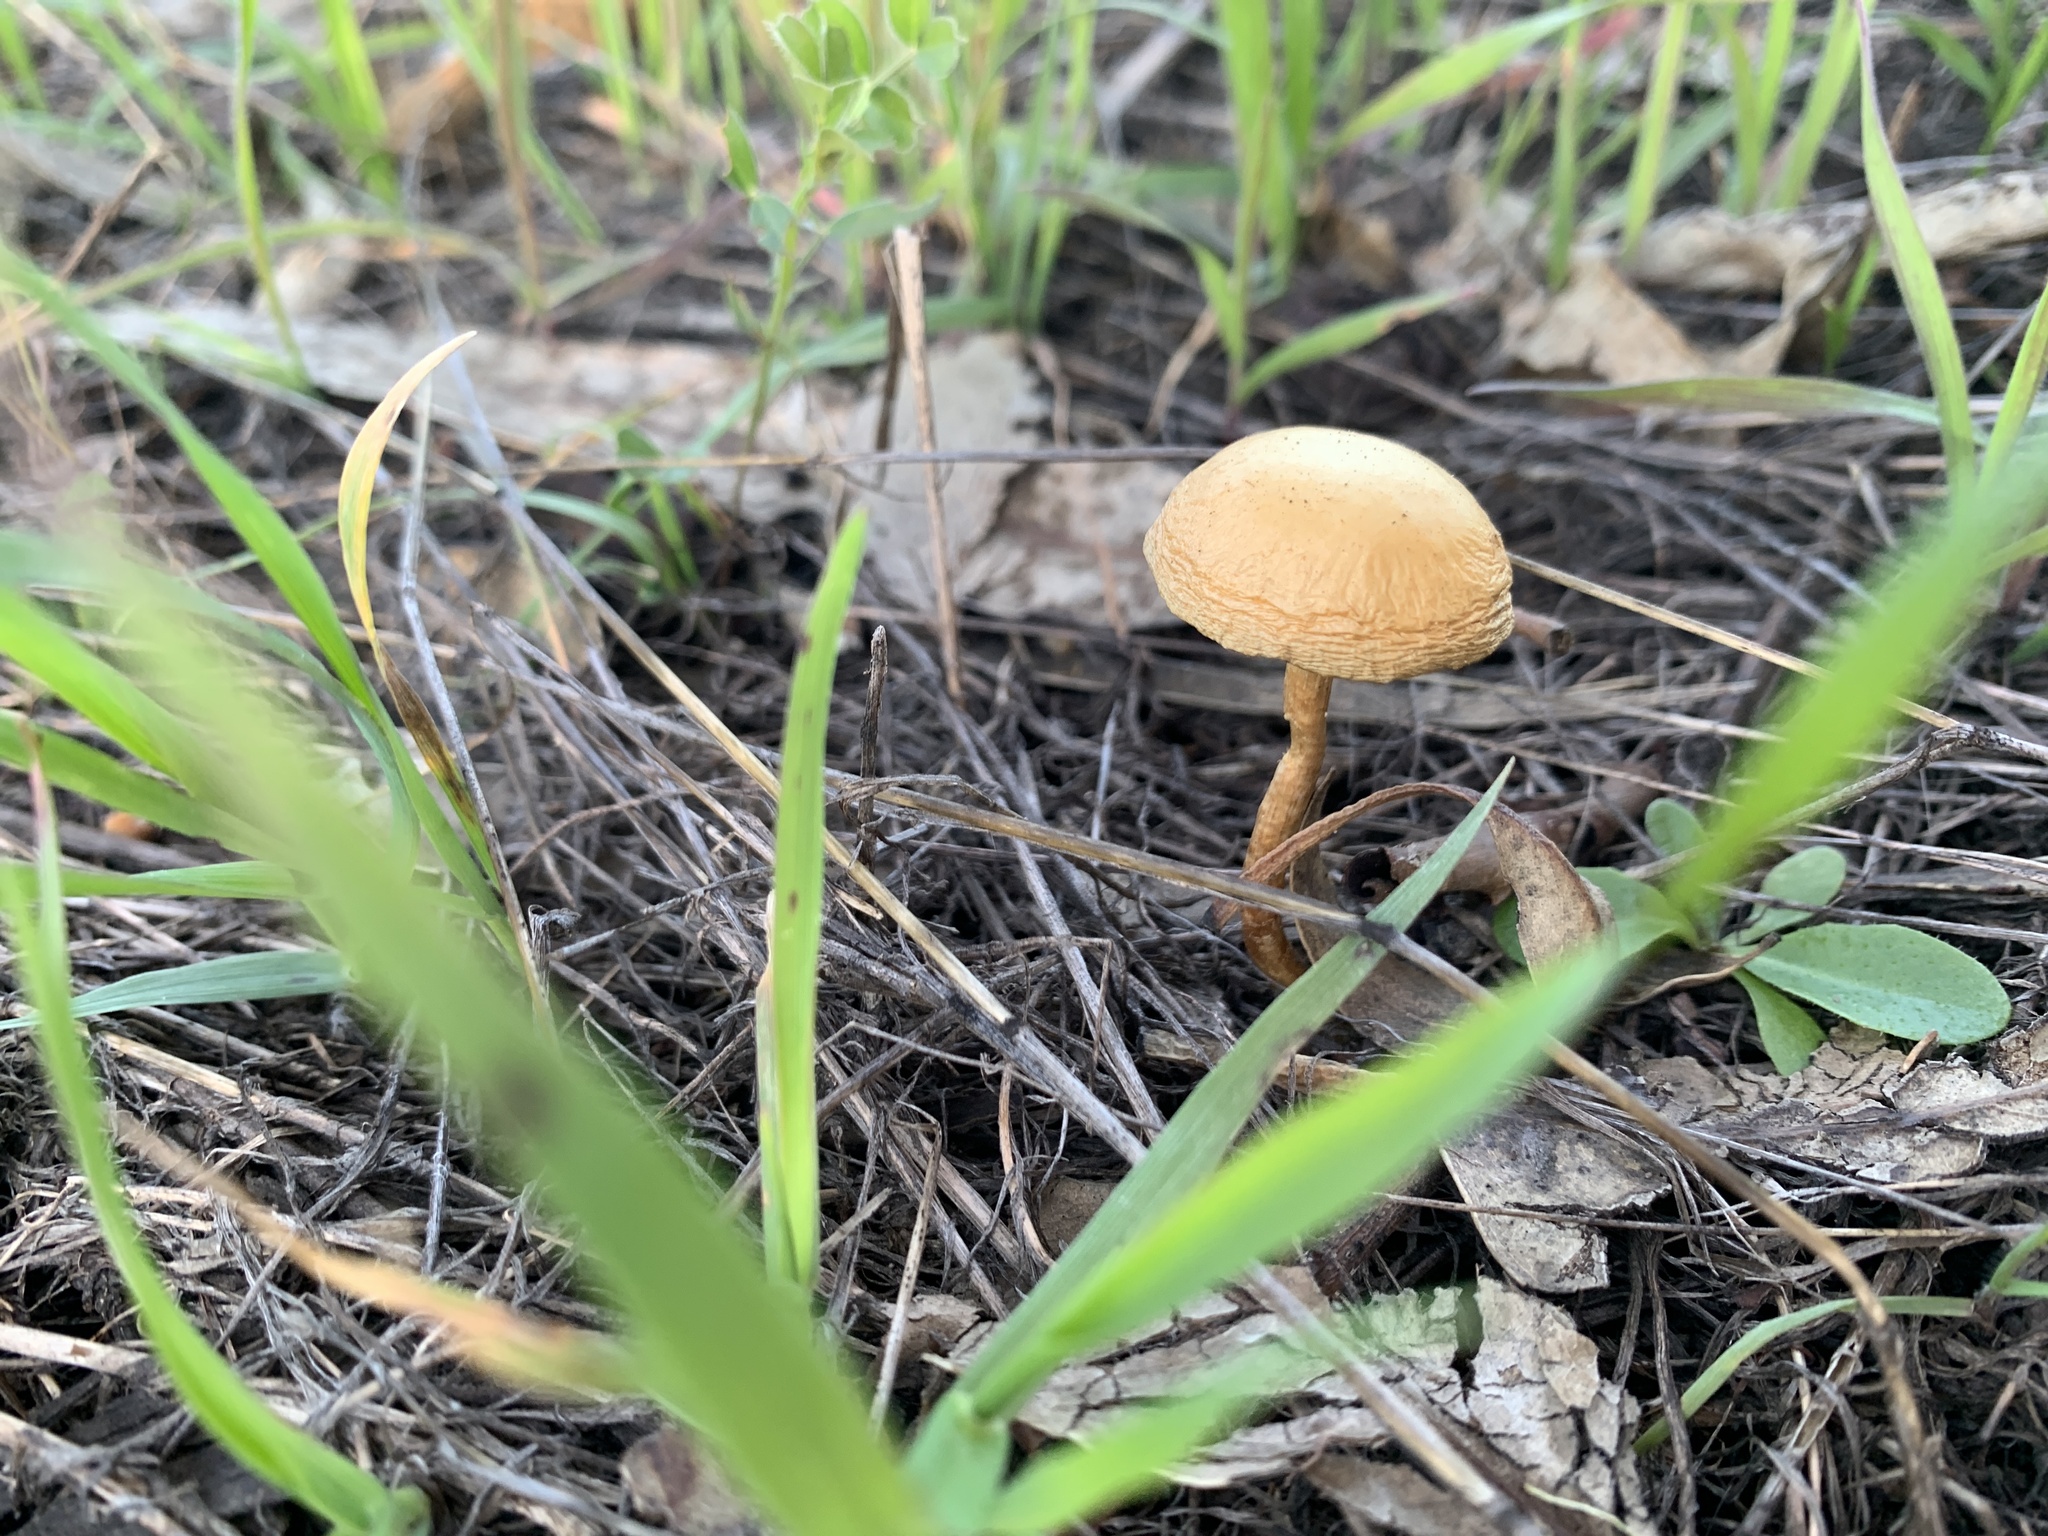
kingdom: Fungi
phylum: Basidiomycota
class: Agaricomycetes
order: Agaricales
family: Strophariaceae
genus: Agrocybe
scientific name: Agrocybe pediades
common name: Common fieldcap
